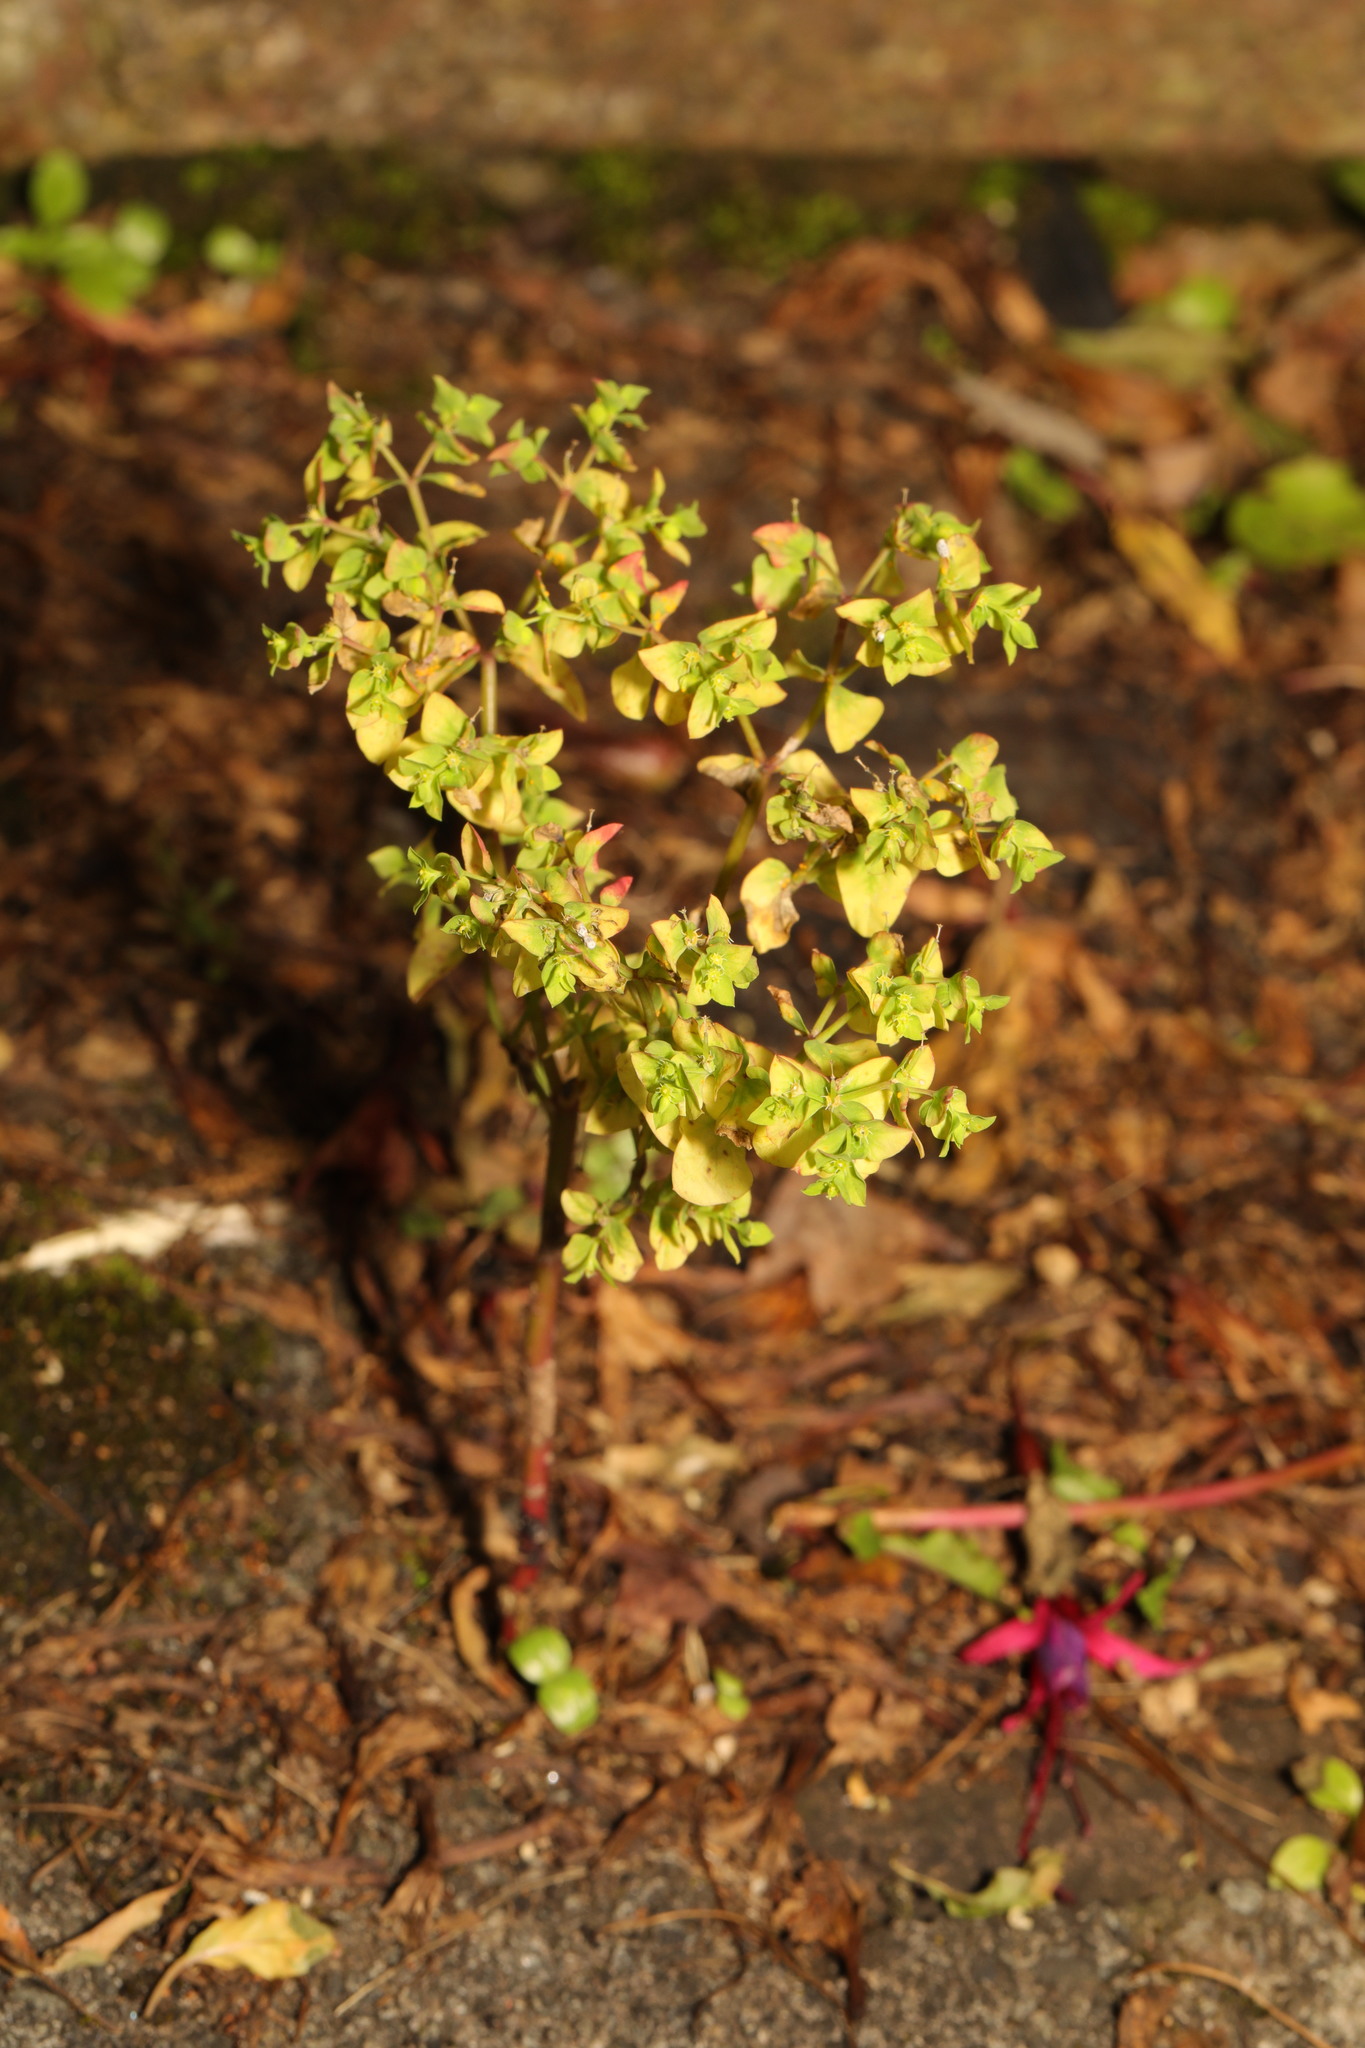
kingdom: Plantae
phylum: Tracheophyta
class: Magnoliopsida
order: Malpighiales
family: Euphorbiaceae
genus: Euphorbia
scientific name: Euphorbia peplus
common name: Petty spurge
